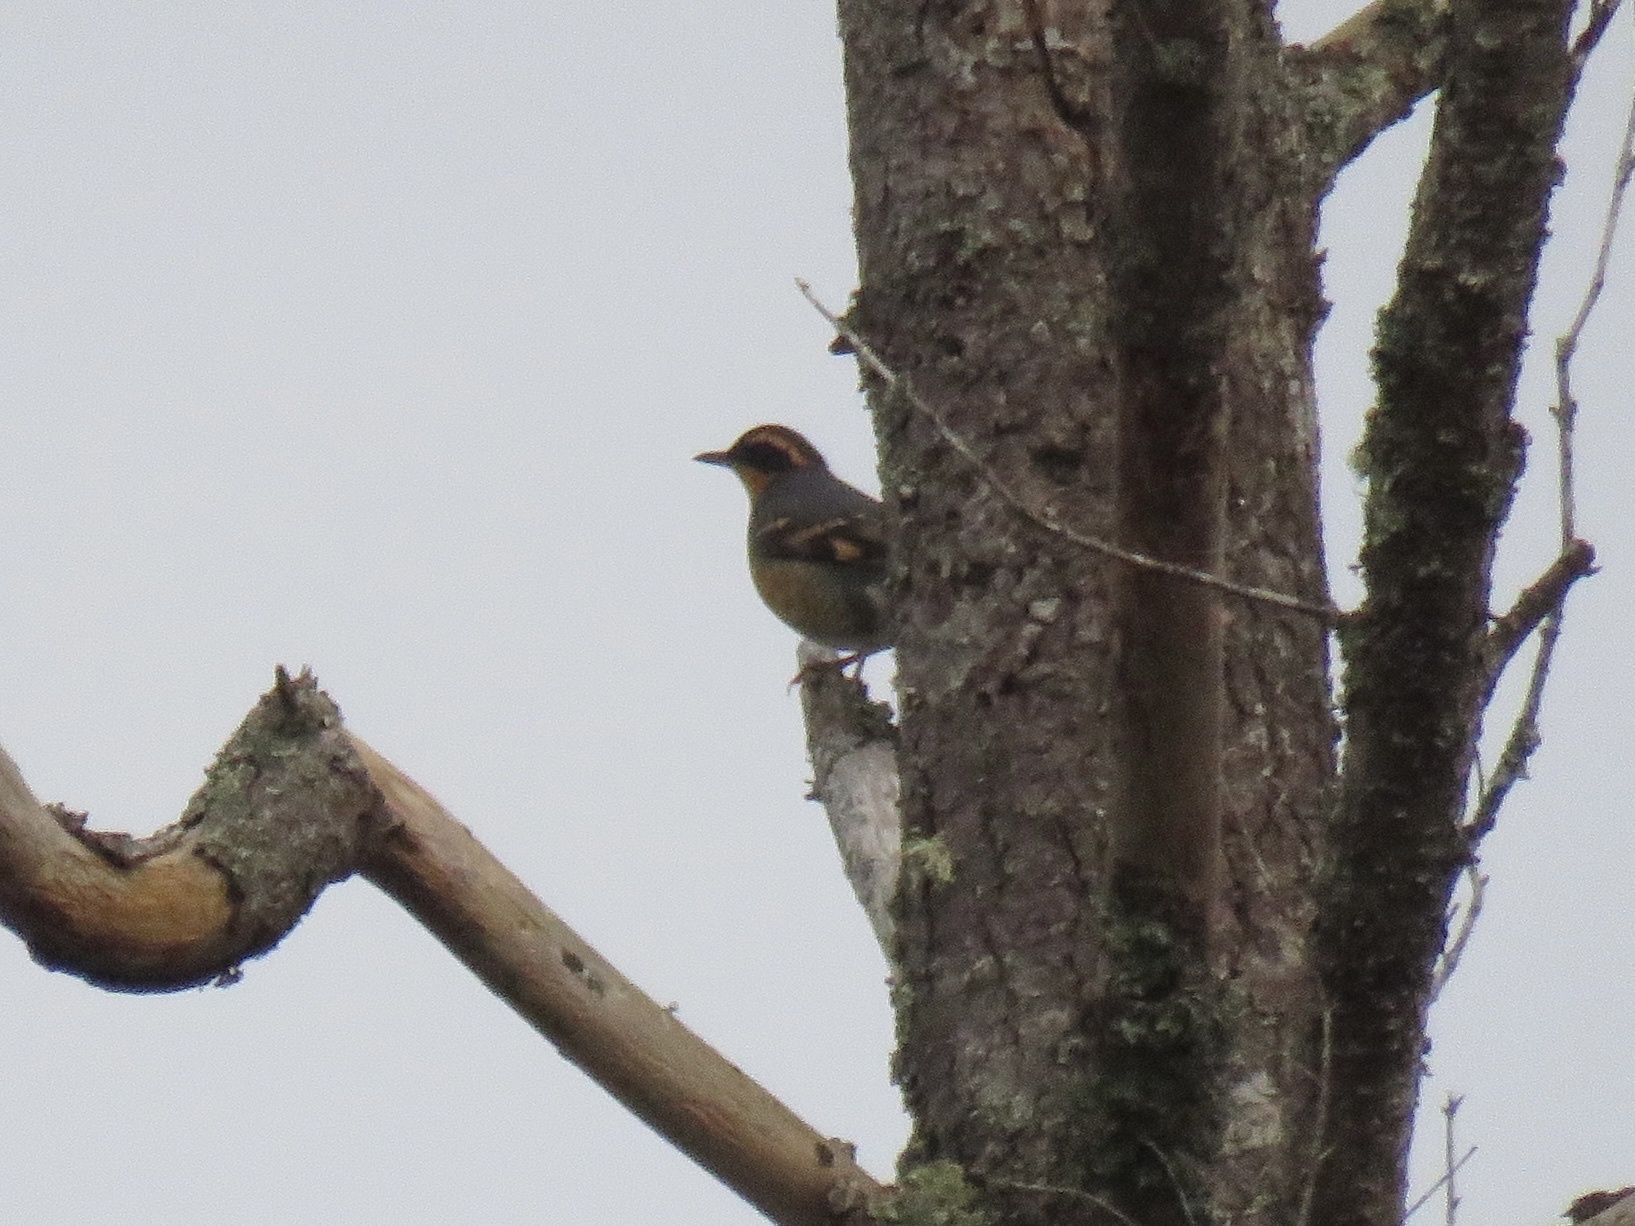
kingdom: Animalia
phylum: Chordata
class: Aves
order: Passeriformes
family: Turdidae
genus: Ixoreus
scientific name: Ixoreus naevius
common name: Varied thrush
